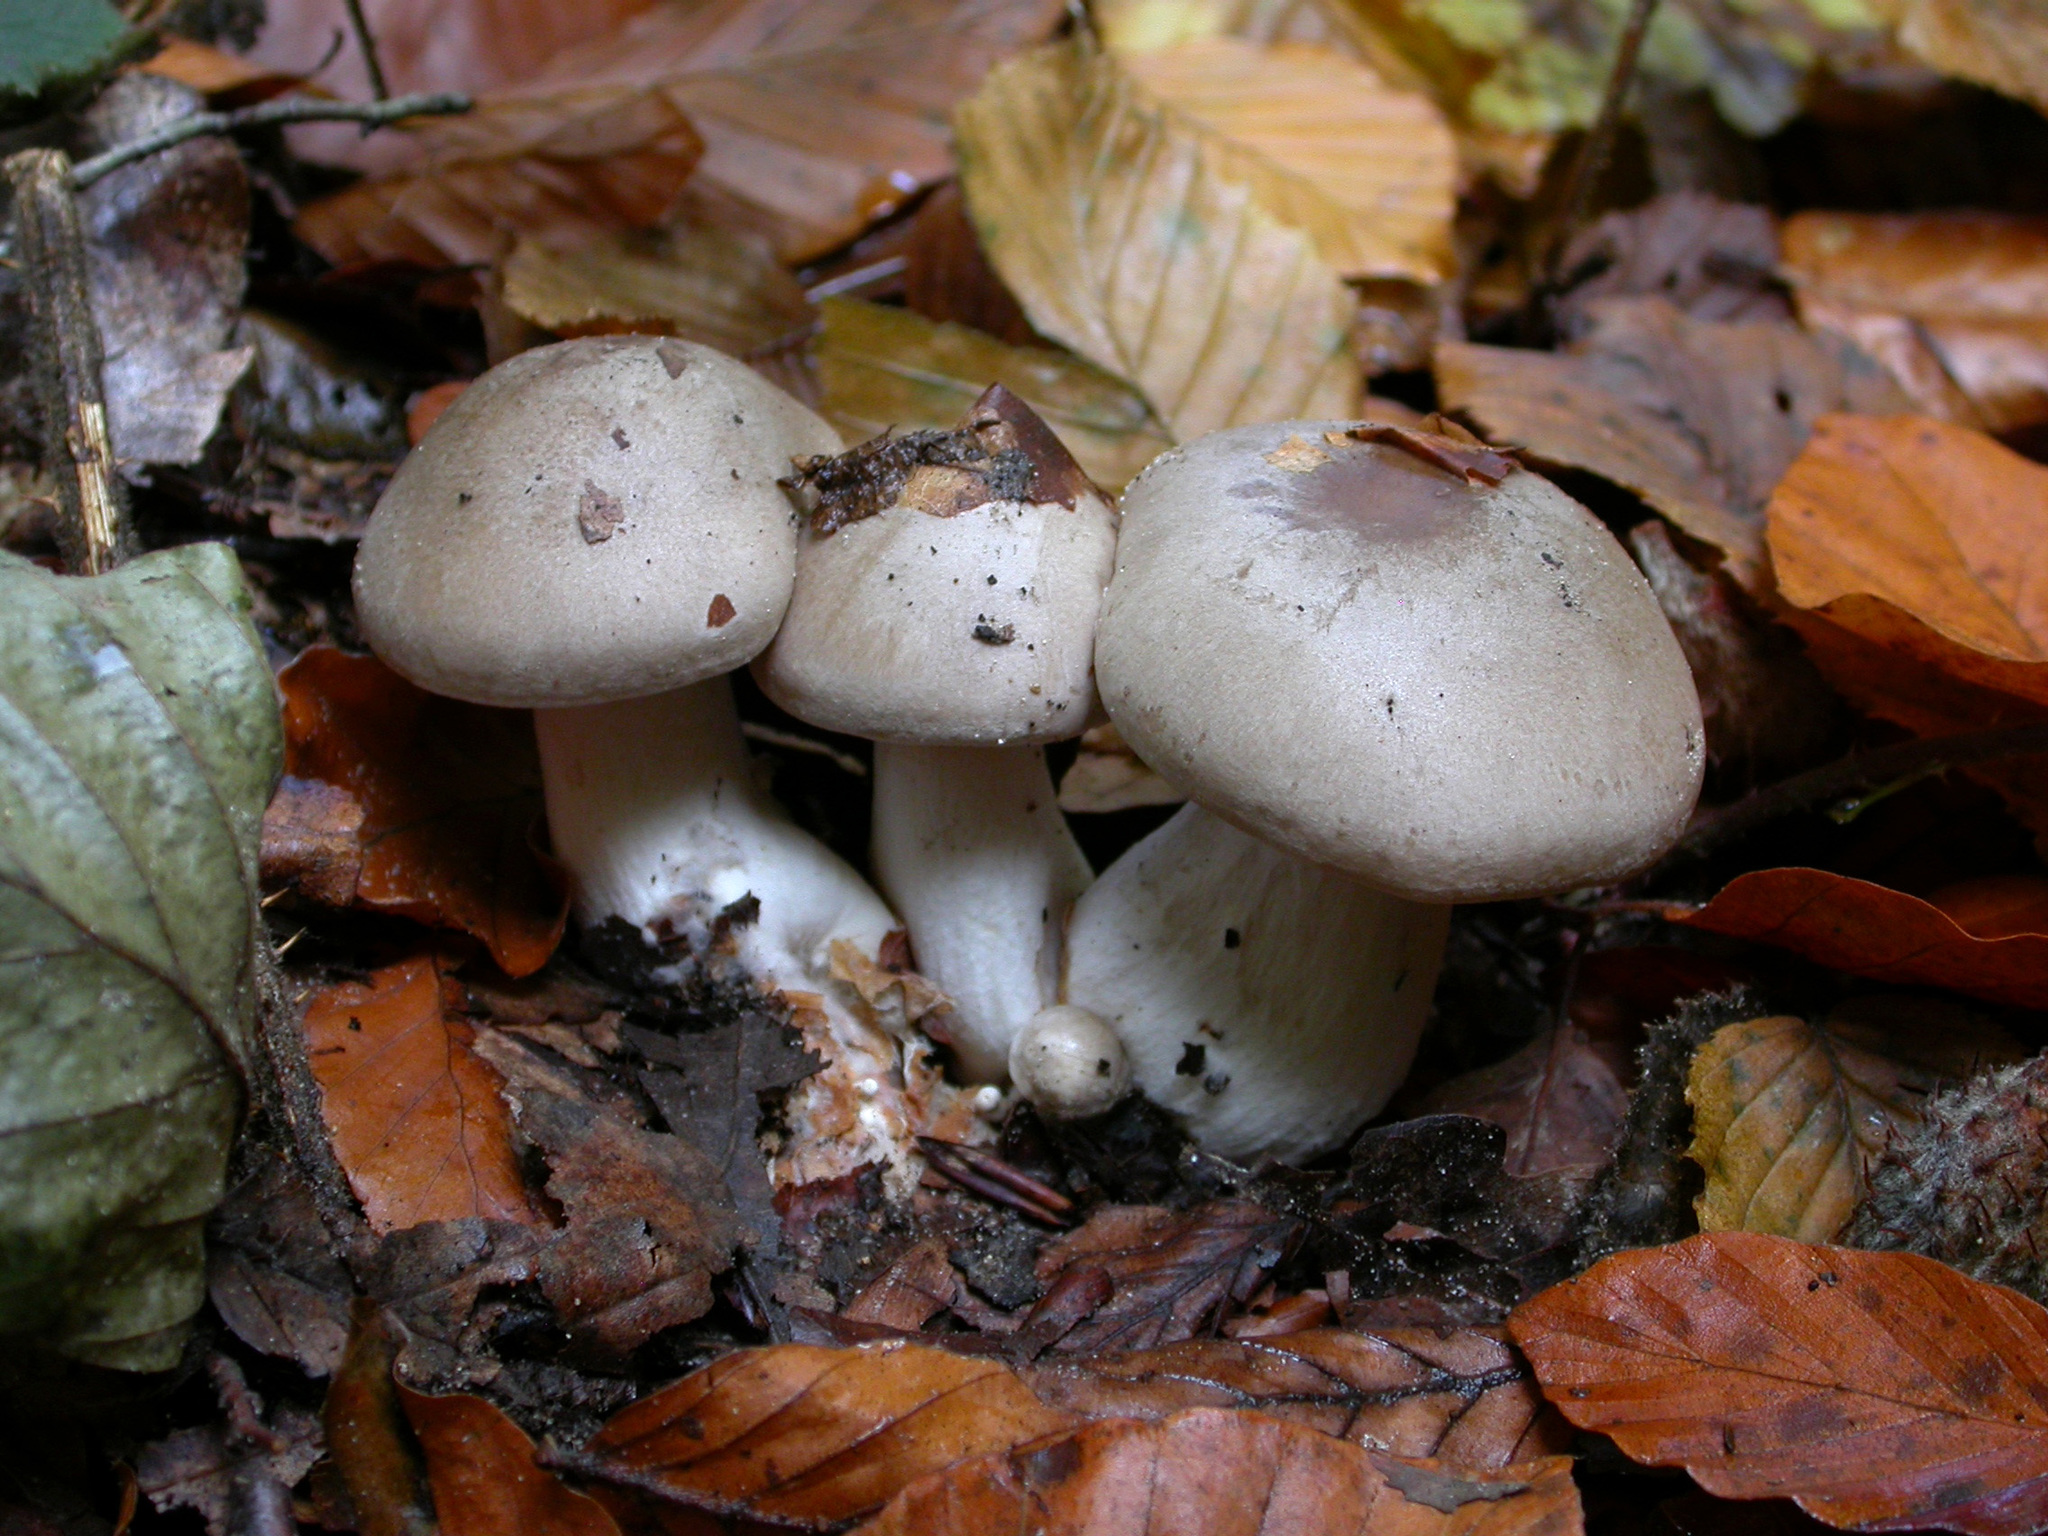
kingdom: Fungi
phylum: Basidiomycota
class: Agaricomycetes
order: Agaricales
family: Tricholomataceae
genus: Clitocybe
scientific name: Clitocybe nebularis
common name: Clouded agaric
